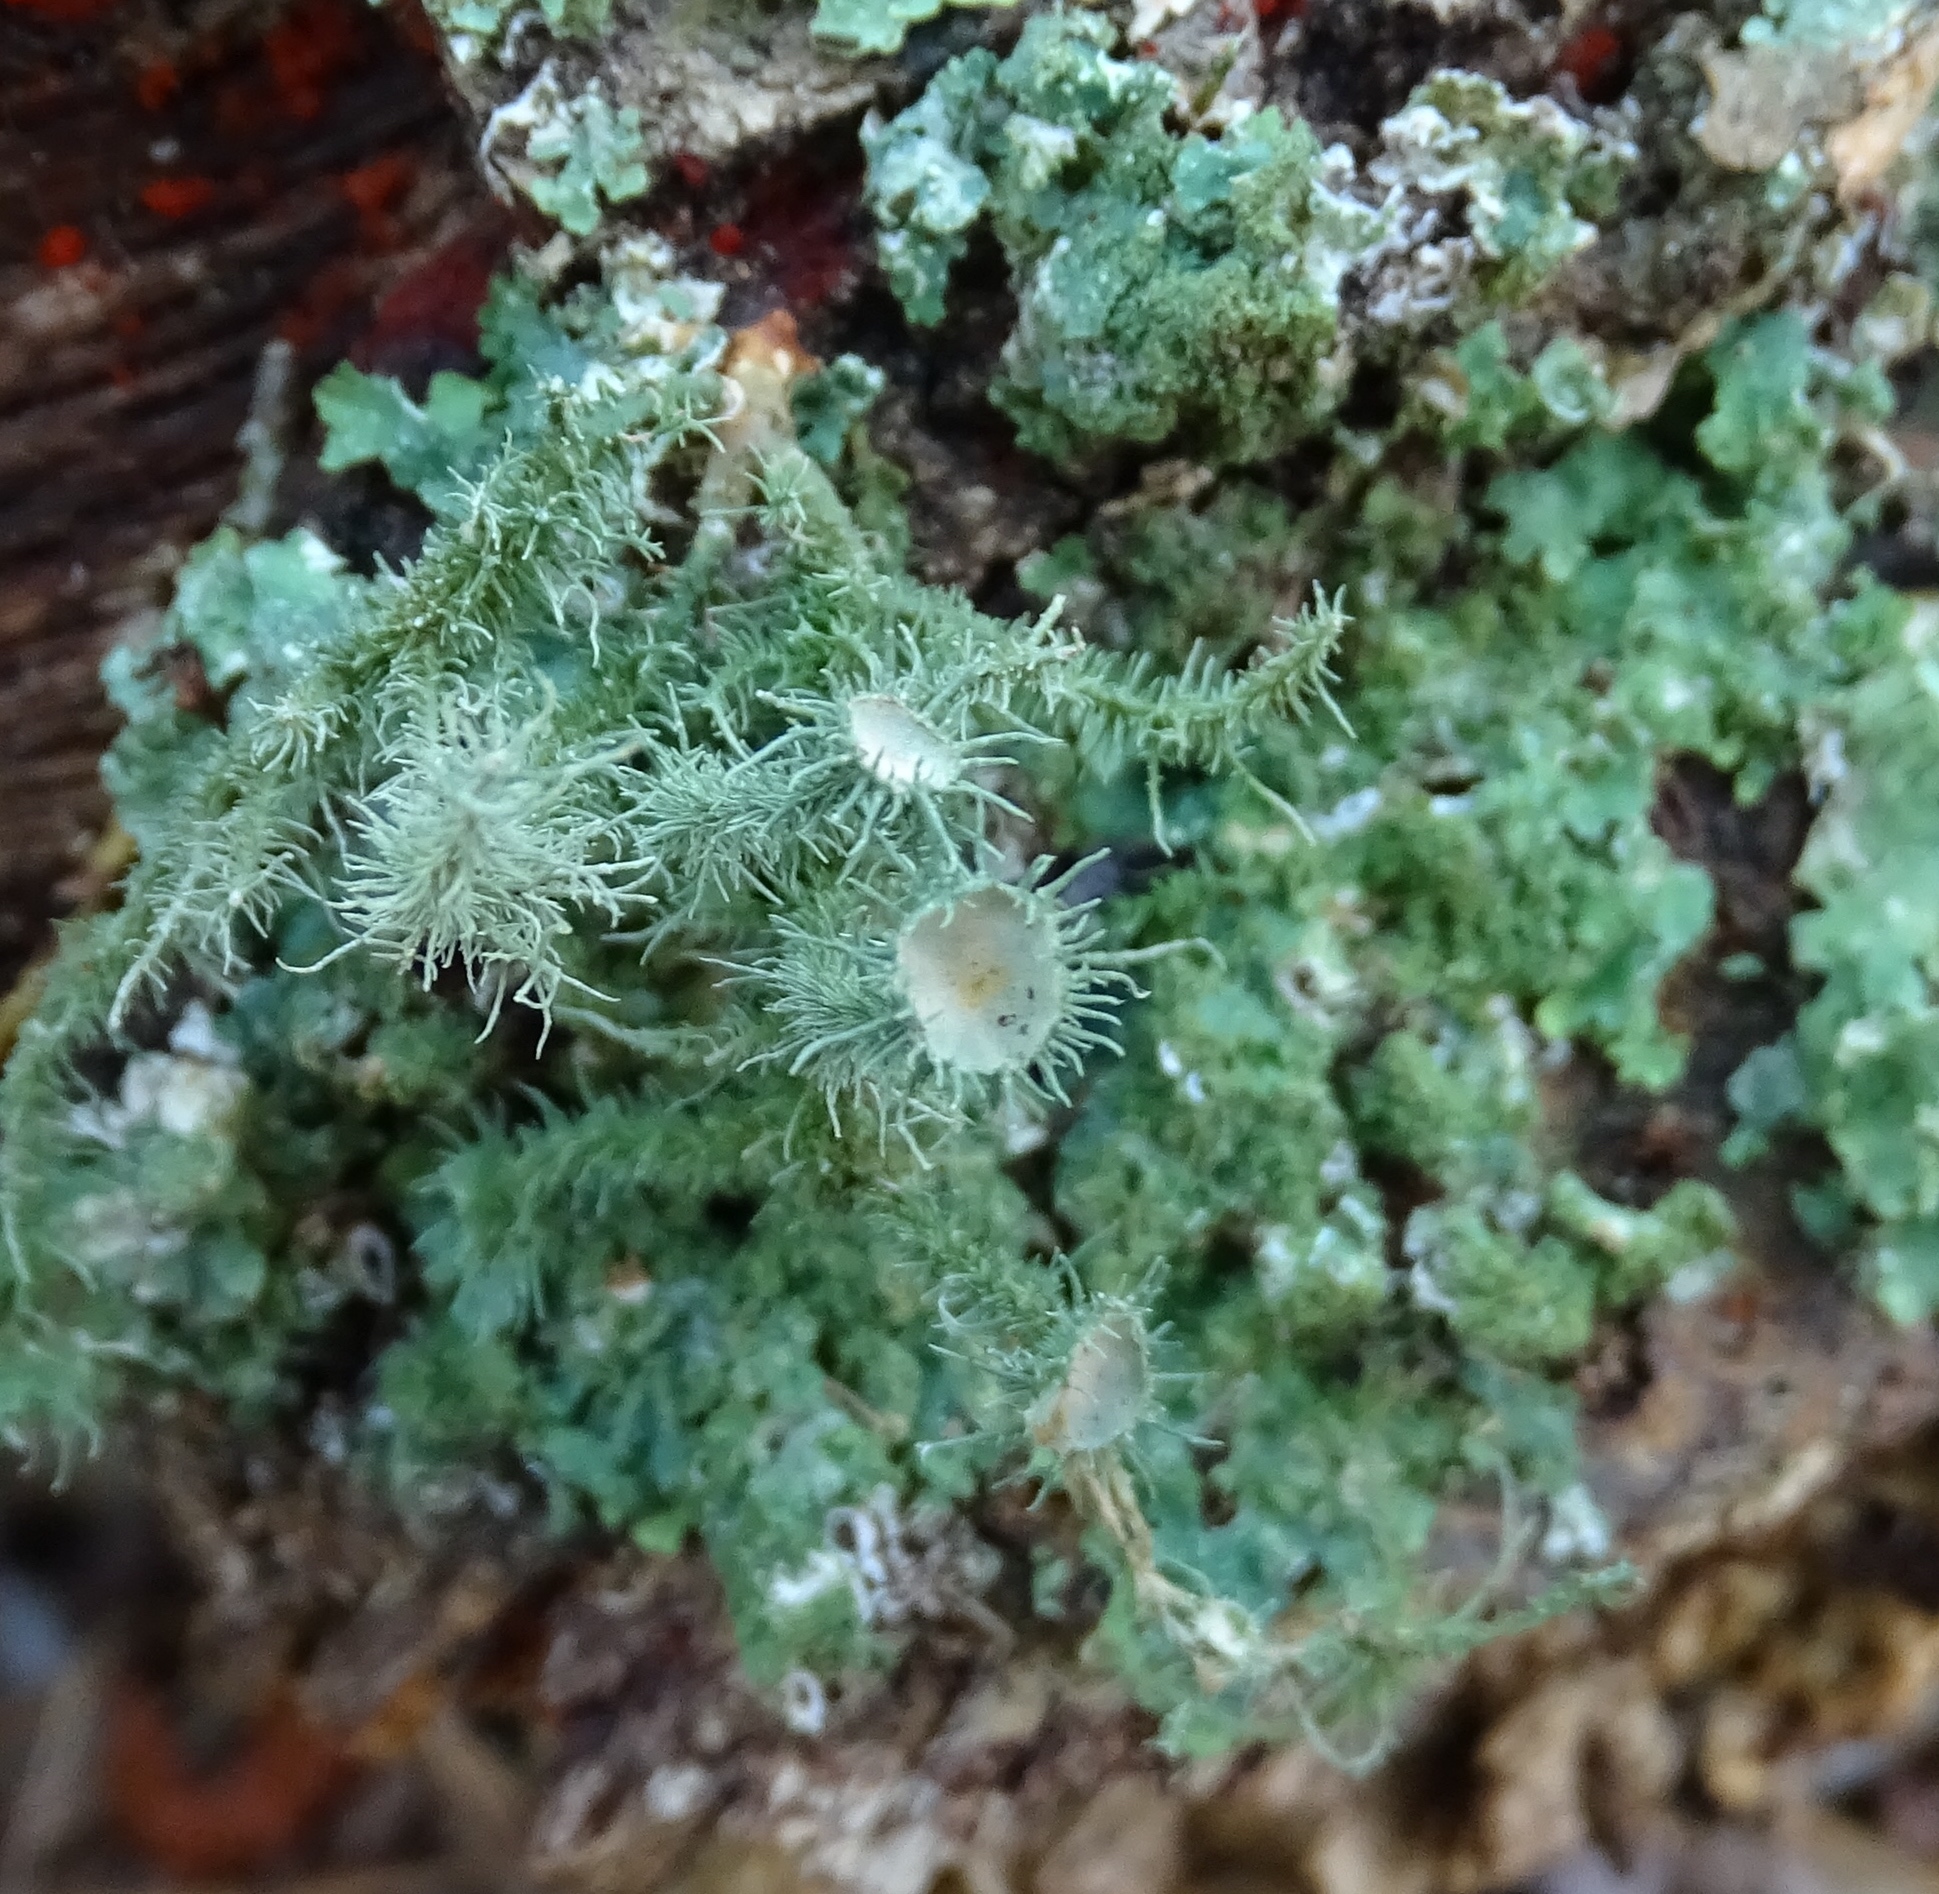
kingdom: Fungi
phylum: Ascomycota
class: Lecanoromycetes
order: Lecanorales
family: Parmeliaceae
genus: Usnea
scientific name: Usnea strigosa
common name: Bushy beard lichen
